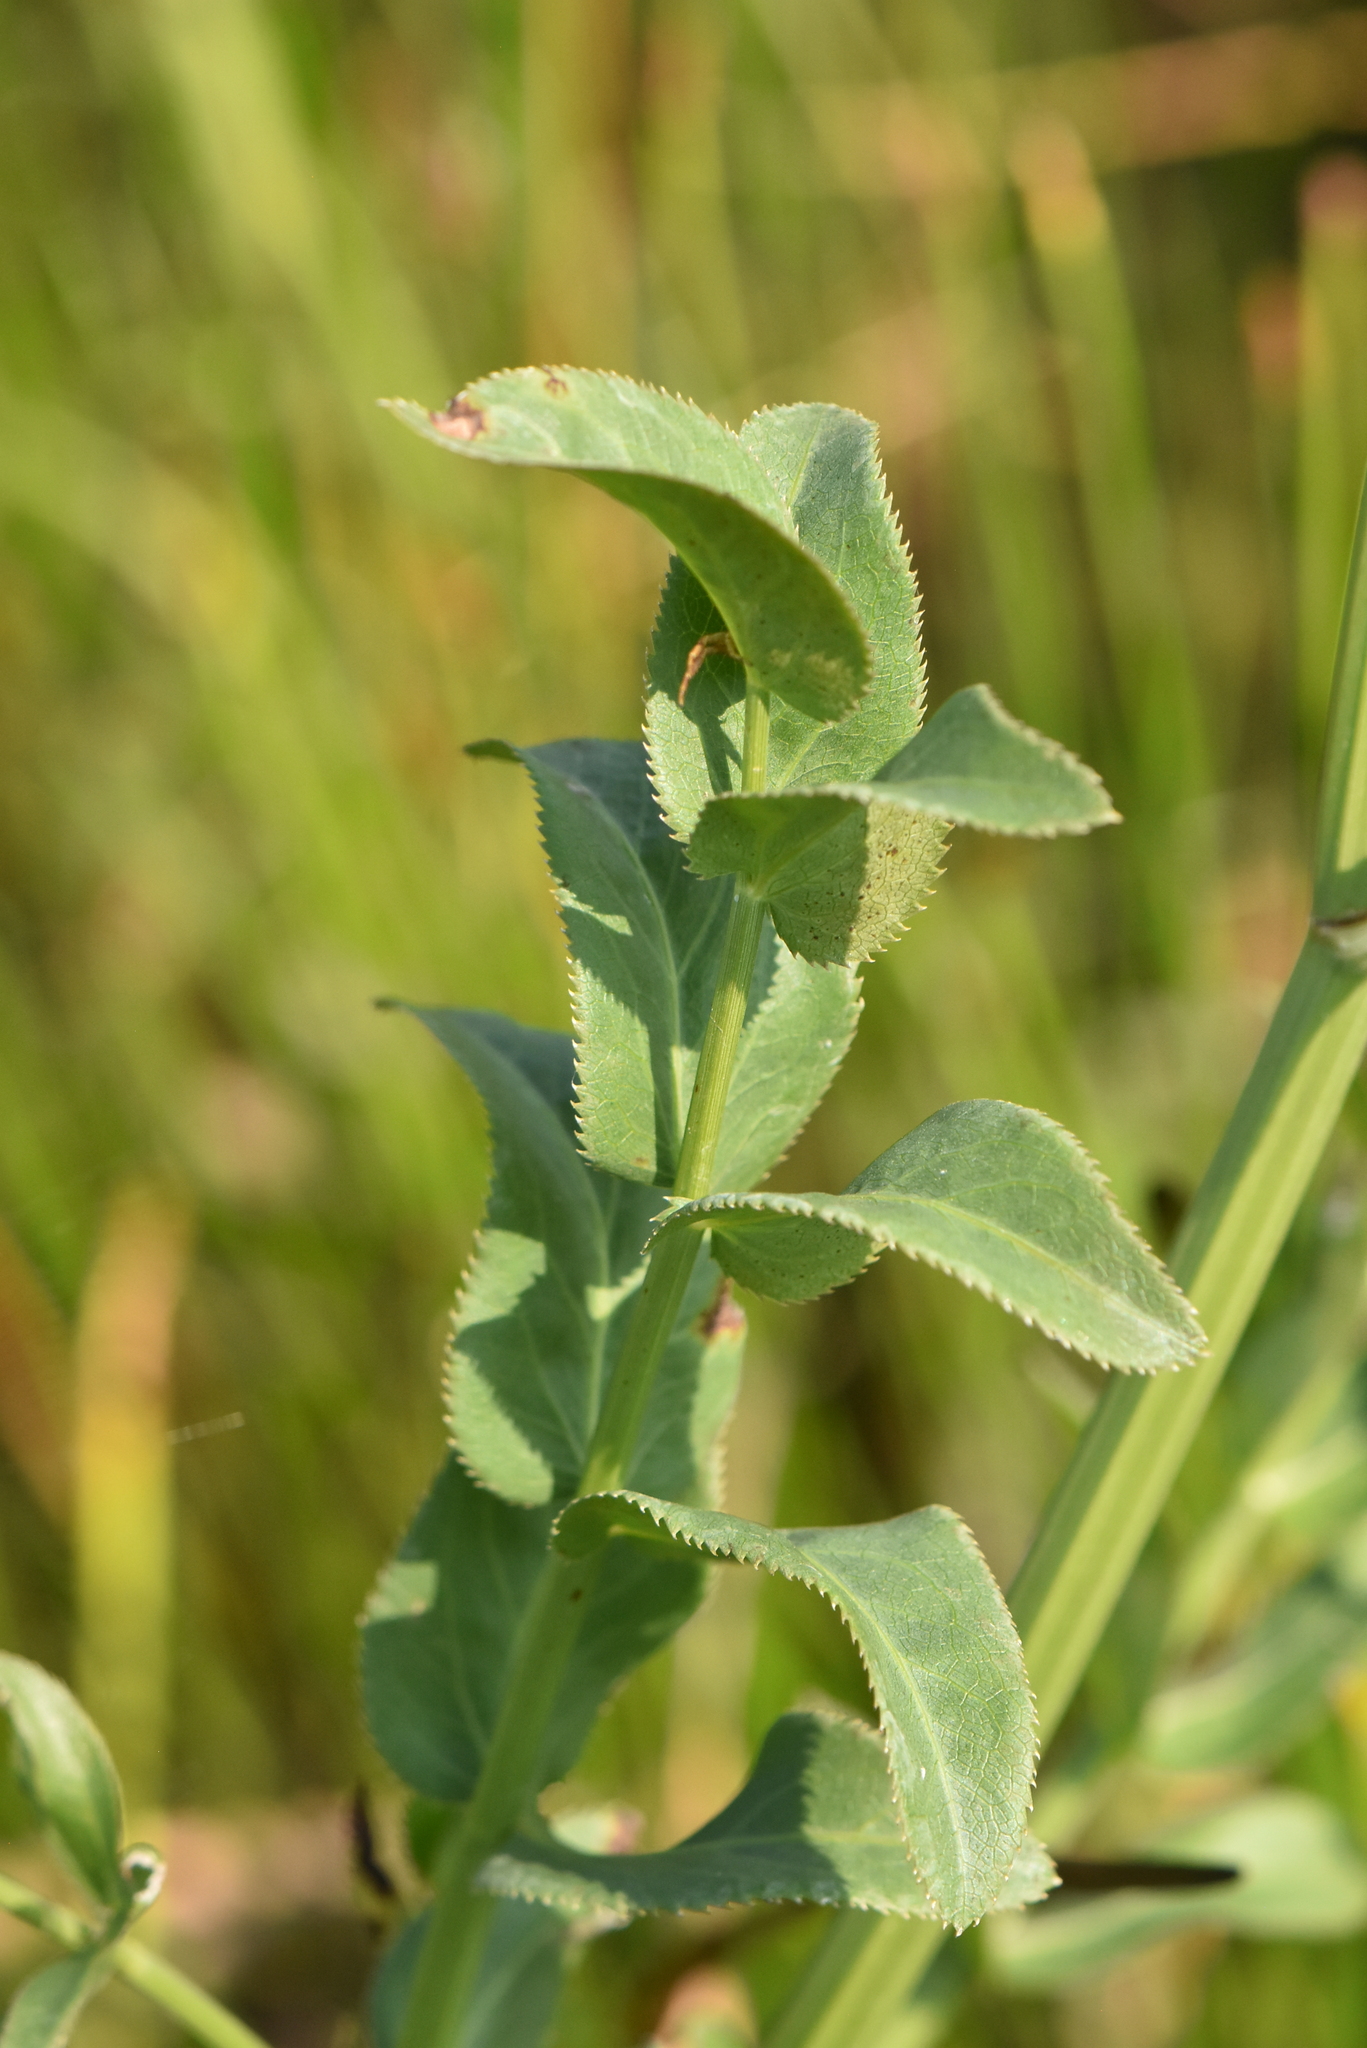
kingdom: Plantae
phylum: Tracheophyta
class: Magnoliopsida
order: Apiales
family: Apiaceae
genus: Sium
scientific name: Sium latifolium
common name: Greater water-parsnip
